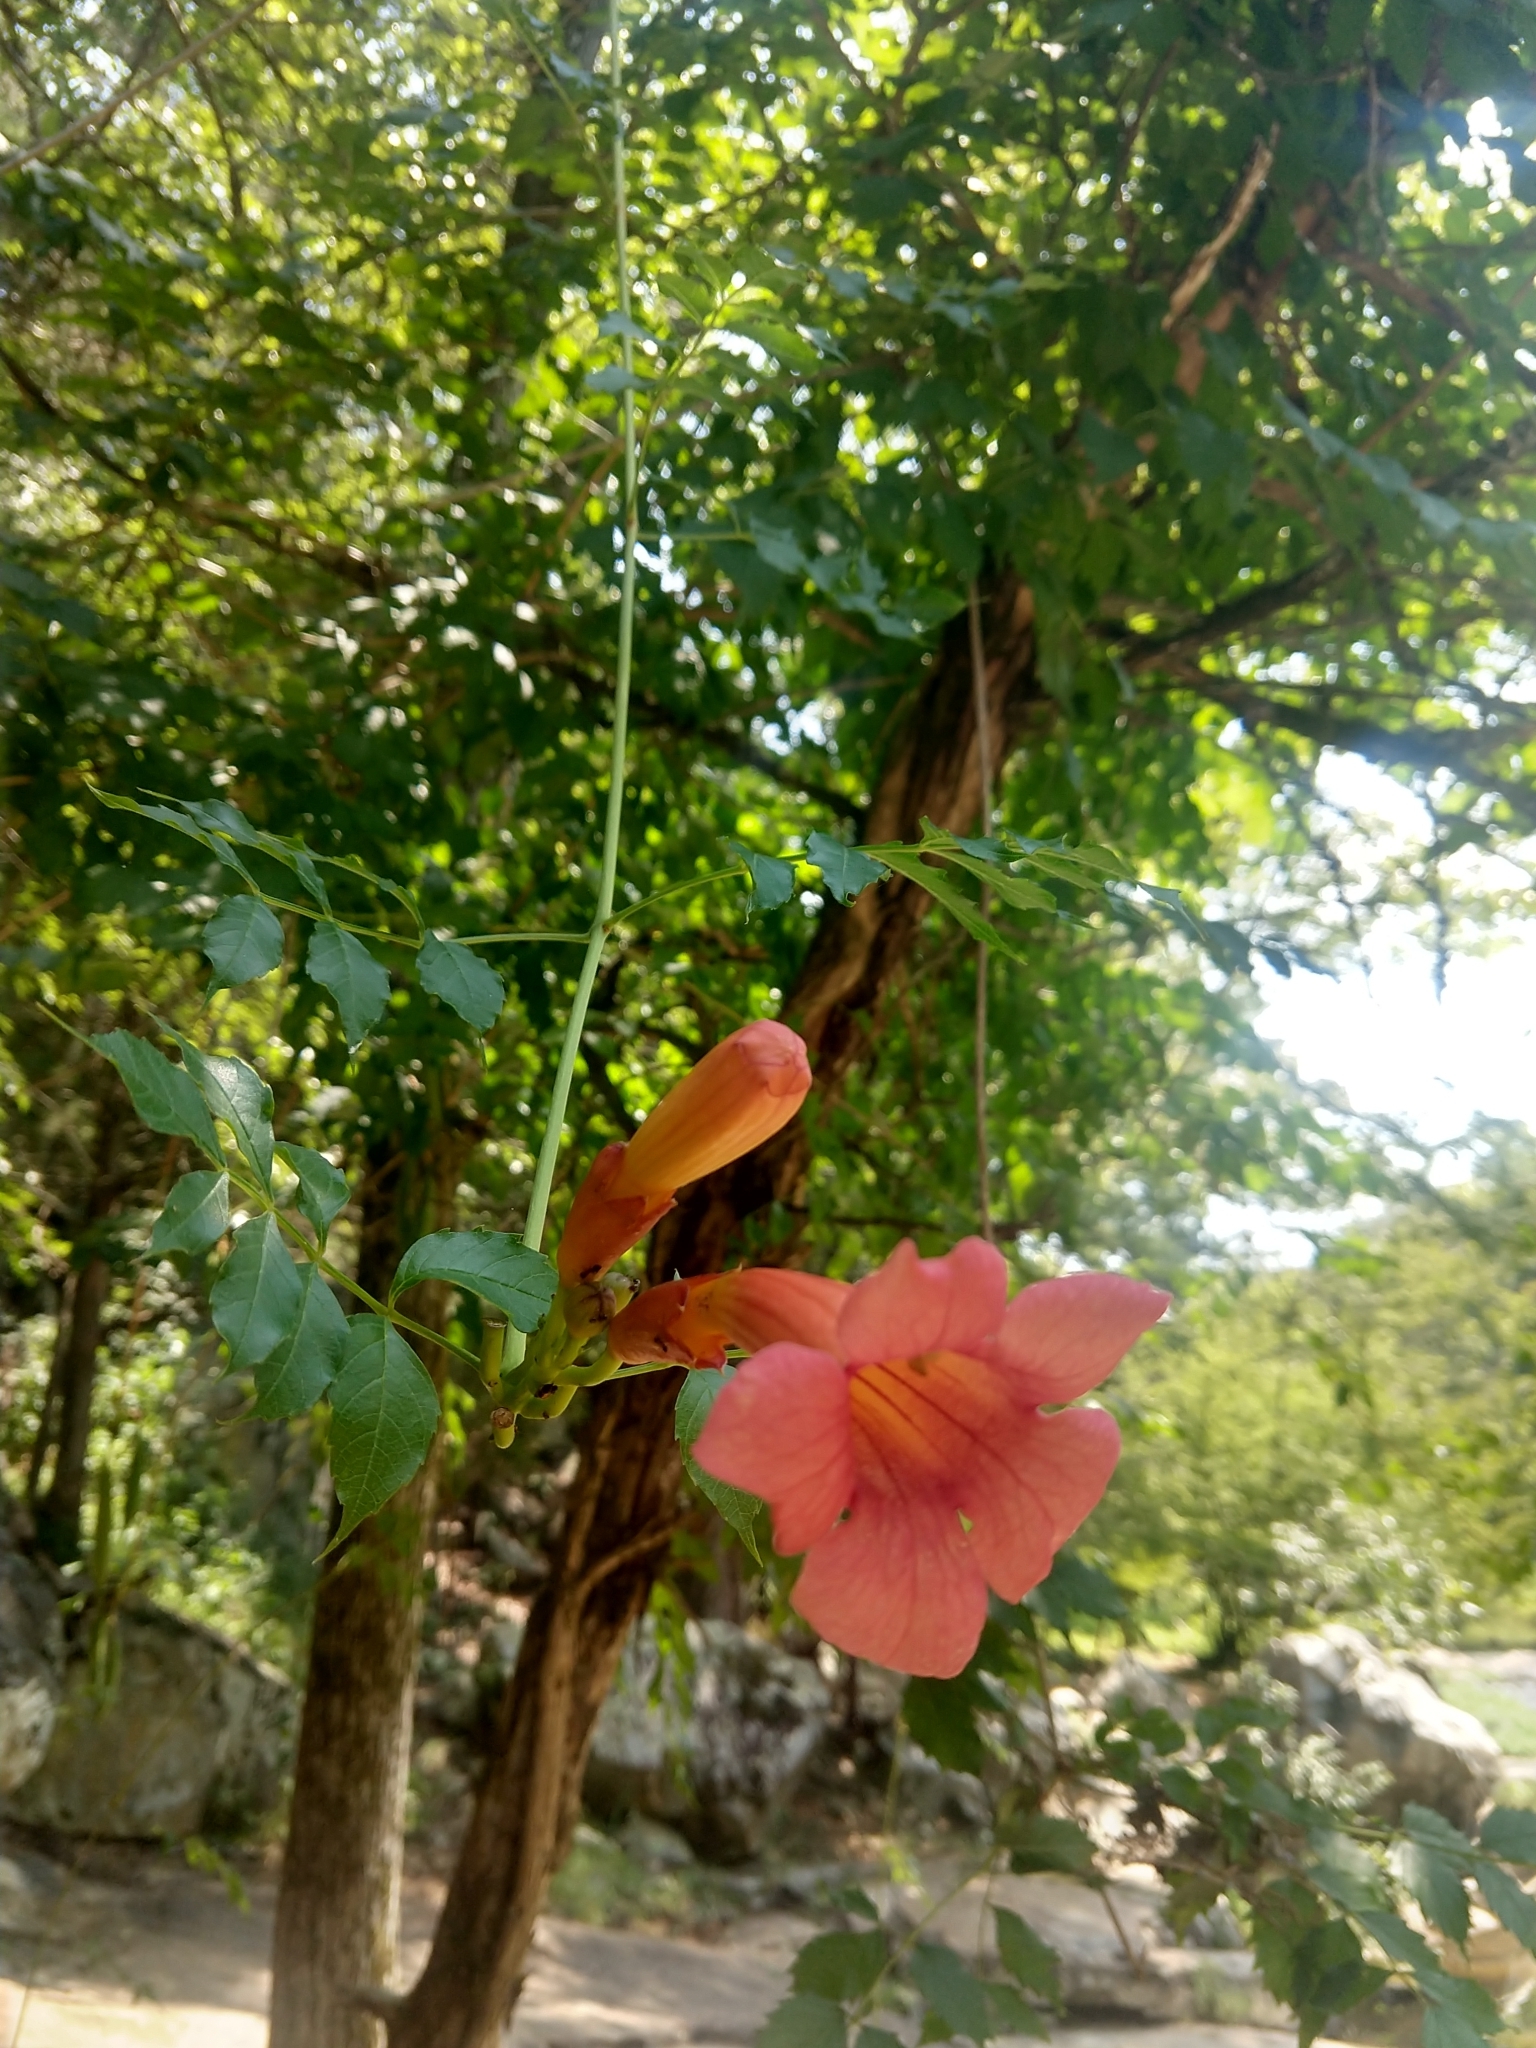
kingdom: Plantae
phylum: Tracheophyta
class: Magnoliopsida
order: Lamiales
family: Bignoniaceae
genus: Campsis
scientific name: Campsis radicans
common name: Trumpet-creeper
